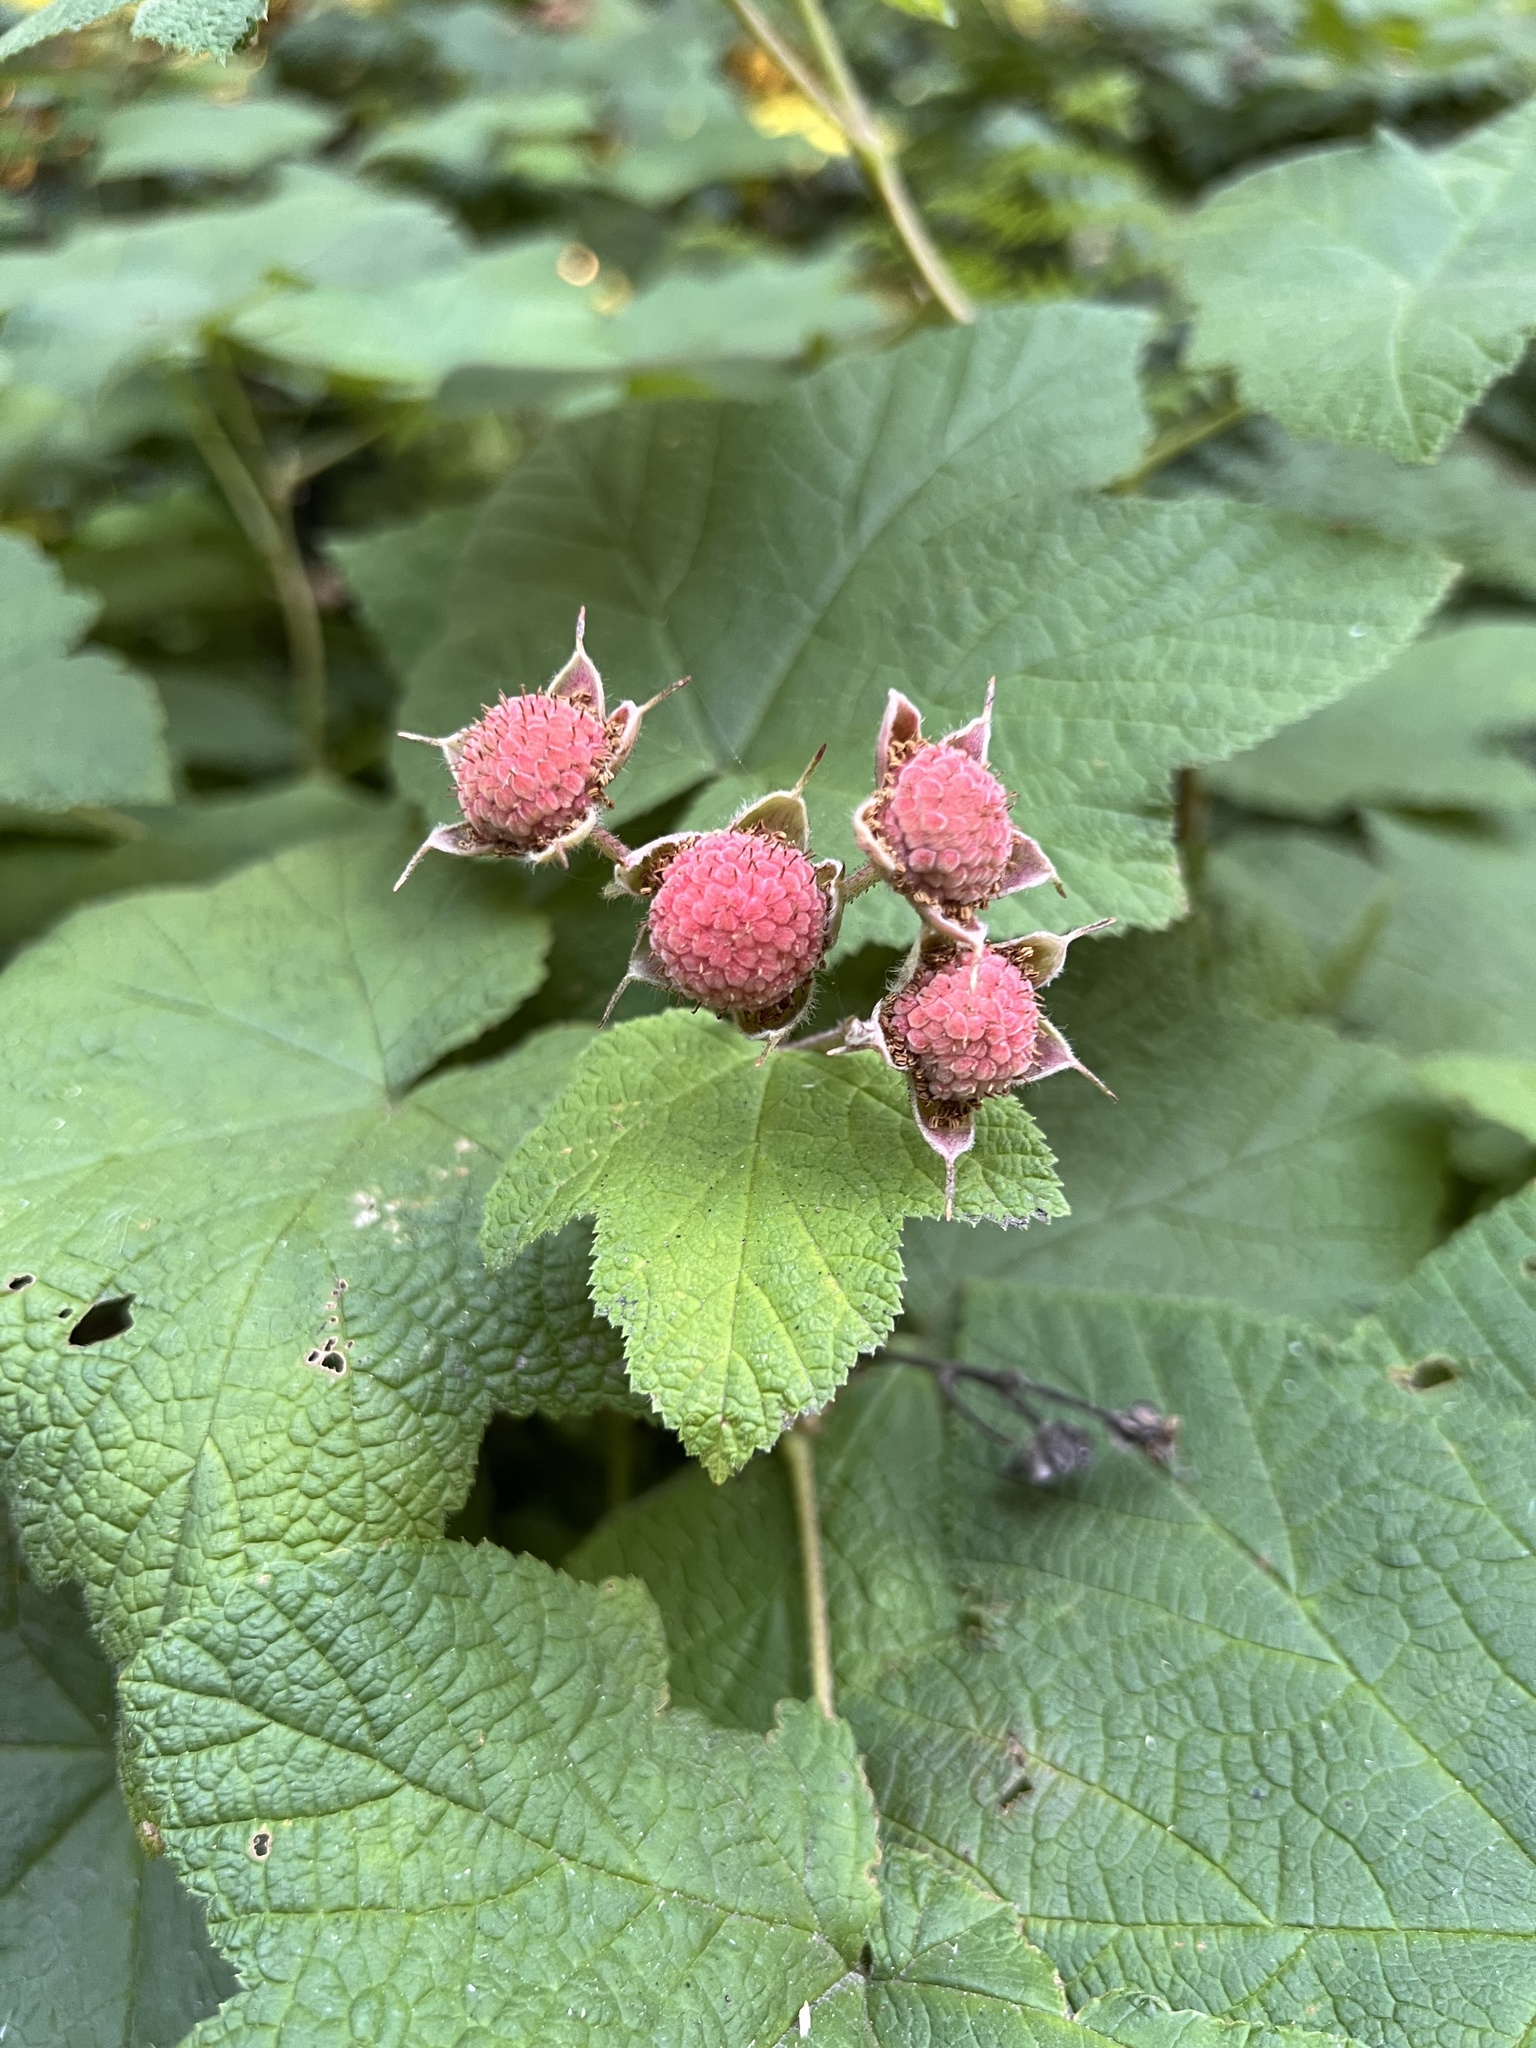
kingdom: Plantae
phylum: Tracheophyta
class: Magnoliopsida
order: Rosales
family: Rosaceae
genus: Rubus
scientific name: Rubus parviflorus
